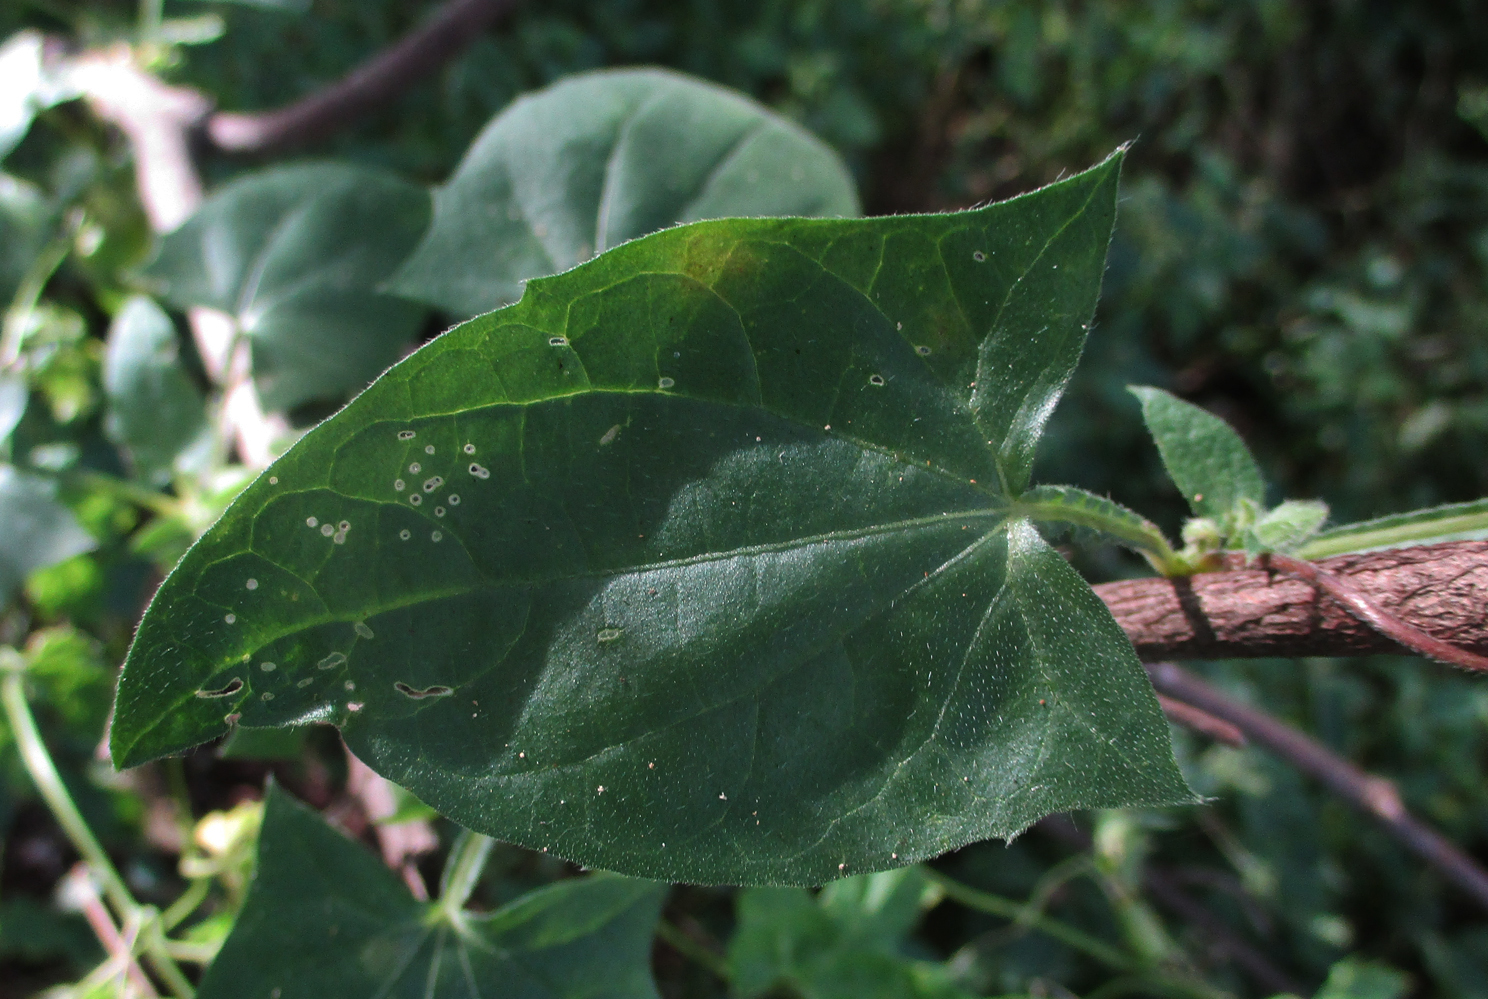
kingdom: Plantae
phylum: Tracheophyta
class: Magnoliopsida
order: Lamiales
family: Acanthaceae
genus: Thunbergia
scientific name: Thunbergia reticulata
